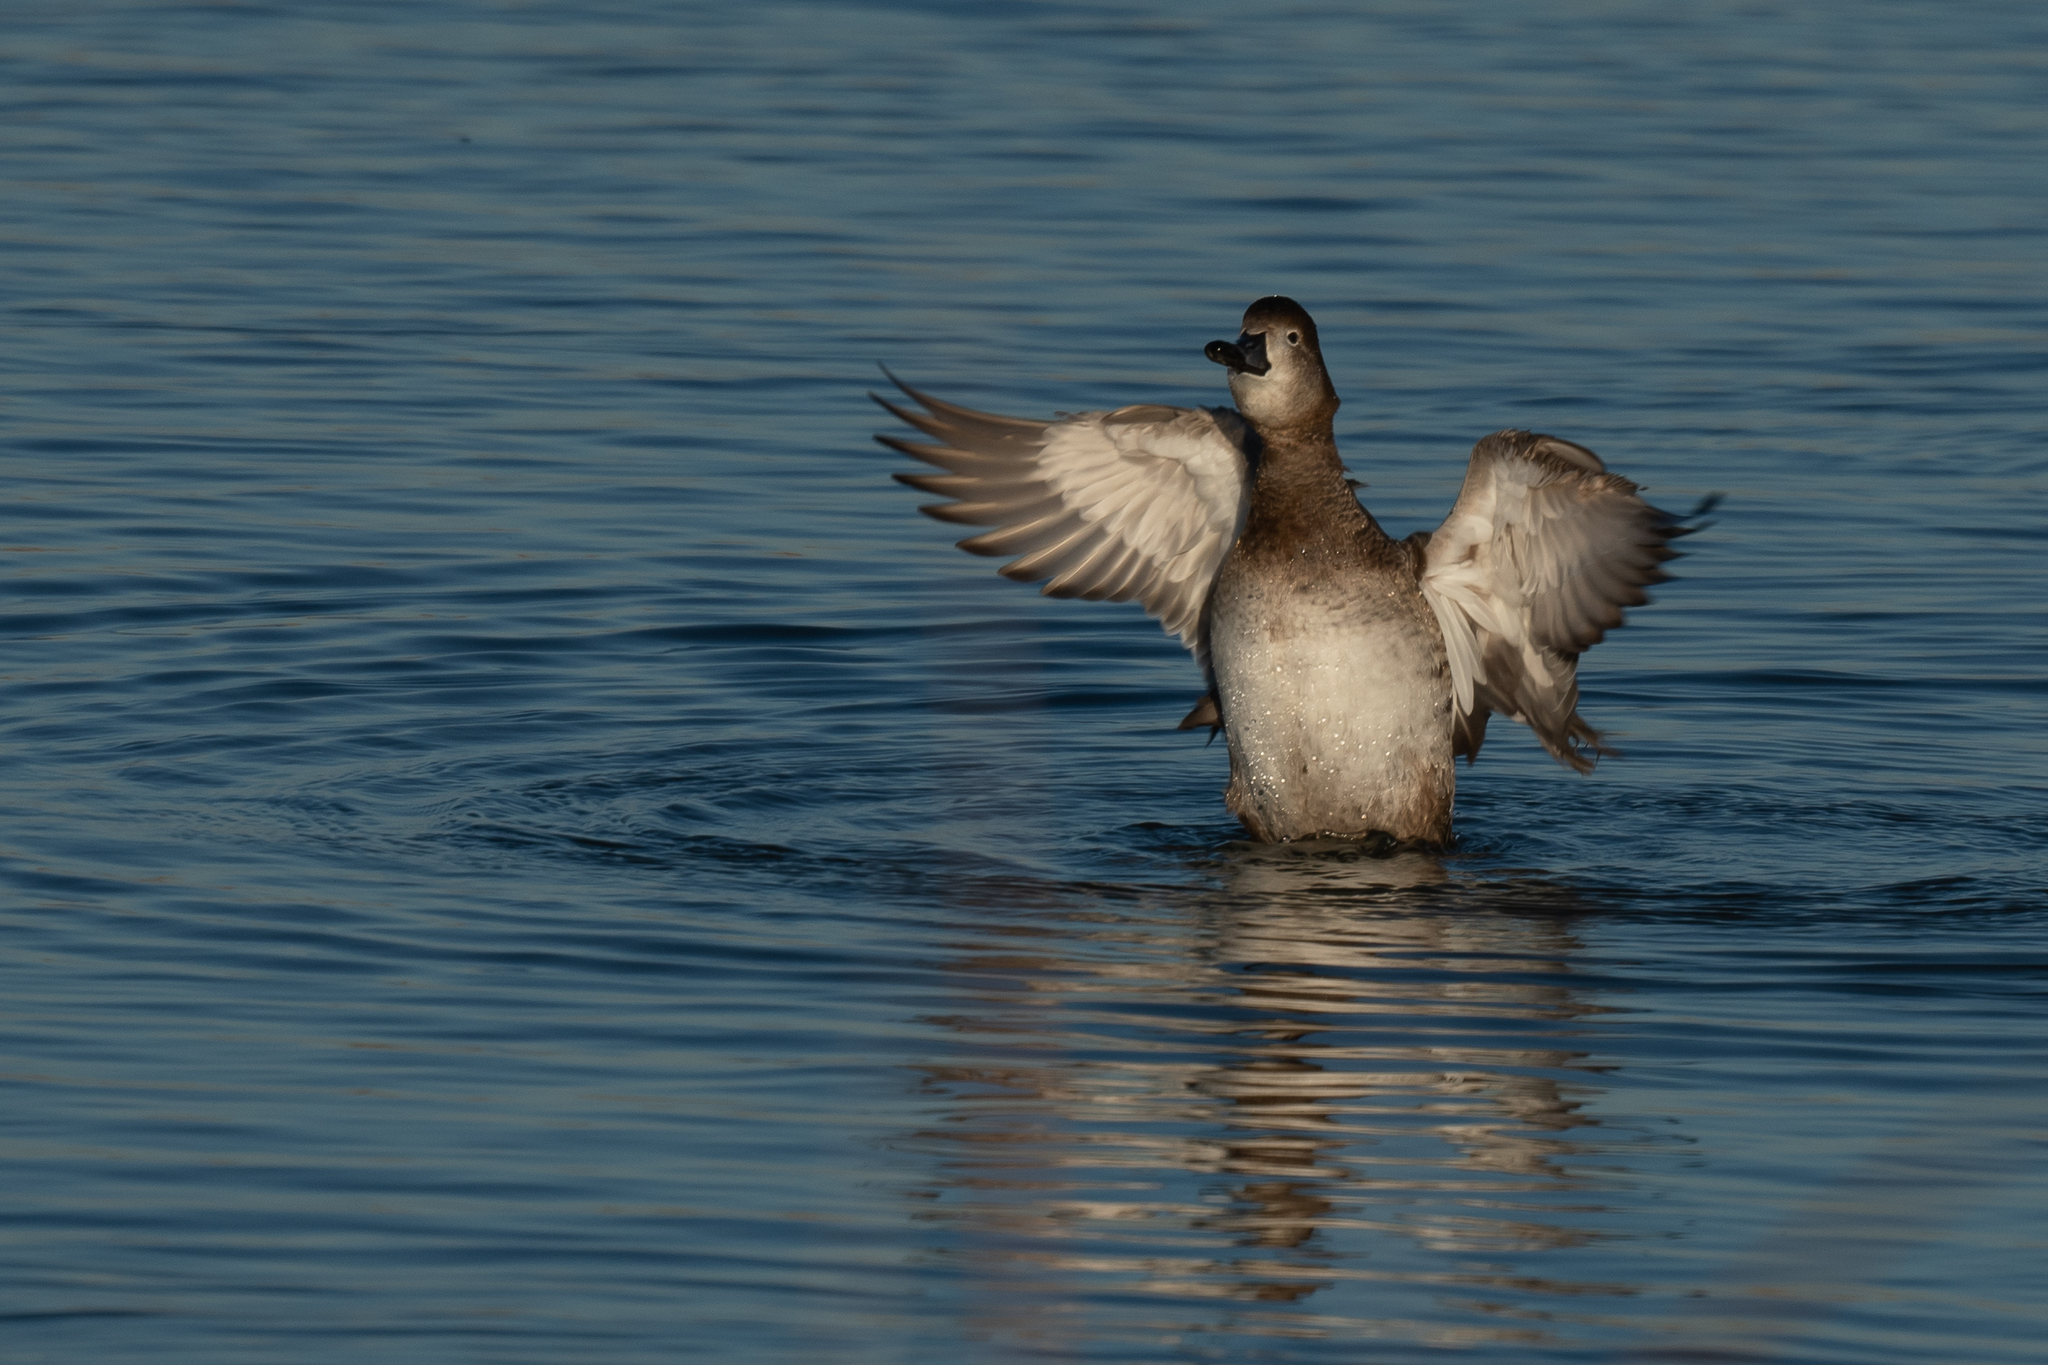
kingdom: Animalia
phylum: Chordata
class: Aves
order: Anseriformes
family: Anatidae
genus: Aythya
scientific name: Aythya americana
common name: Redhead
